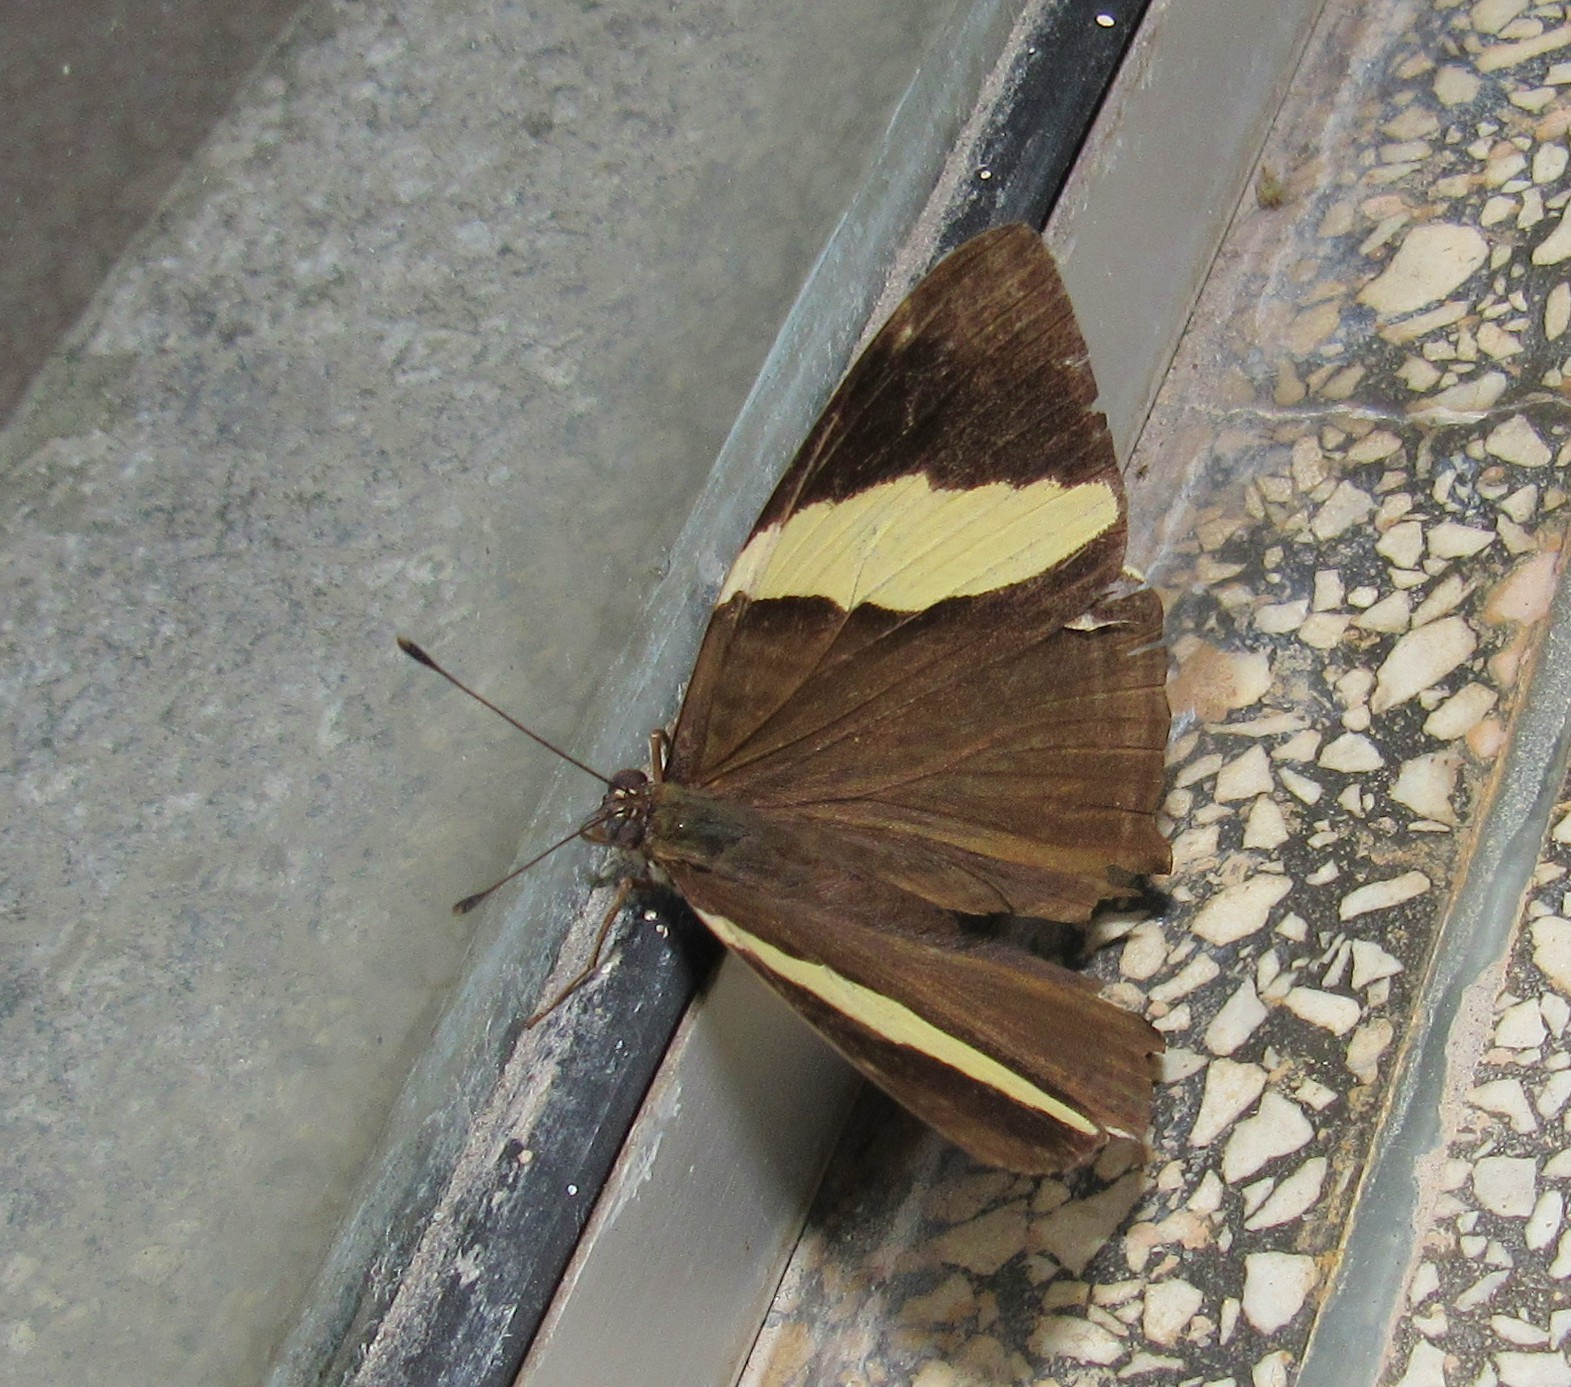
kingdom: Animalia
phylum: Arthropoda
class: Insecta
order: Lepidoptera
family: Nymphalidae
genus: Colobura
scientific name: Colobura dirce
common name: Dirce beauty
